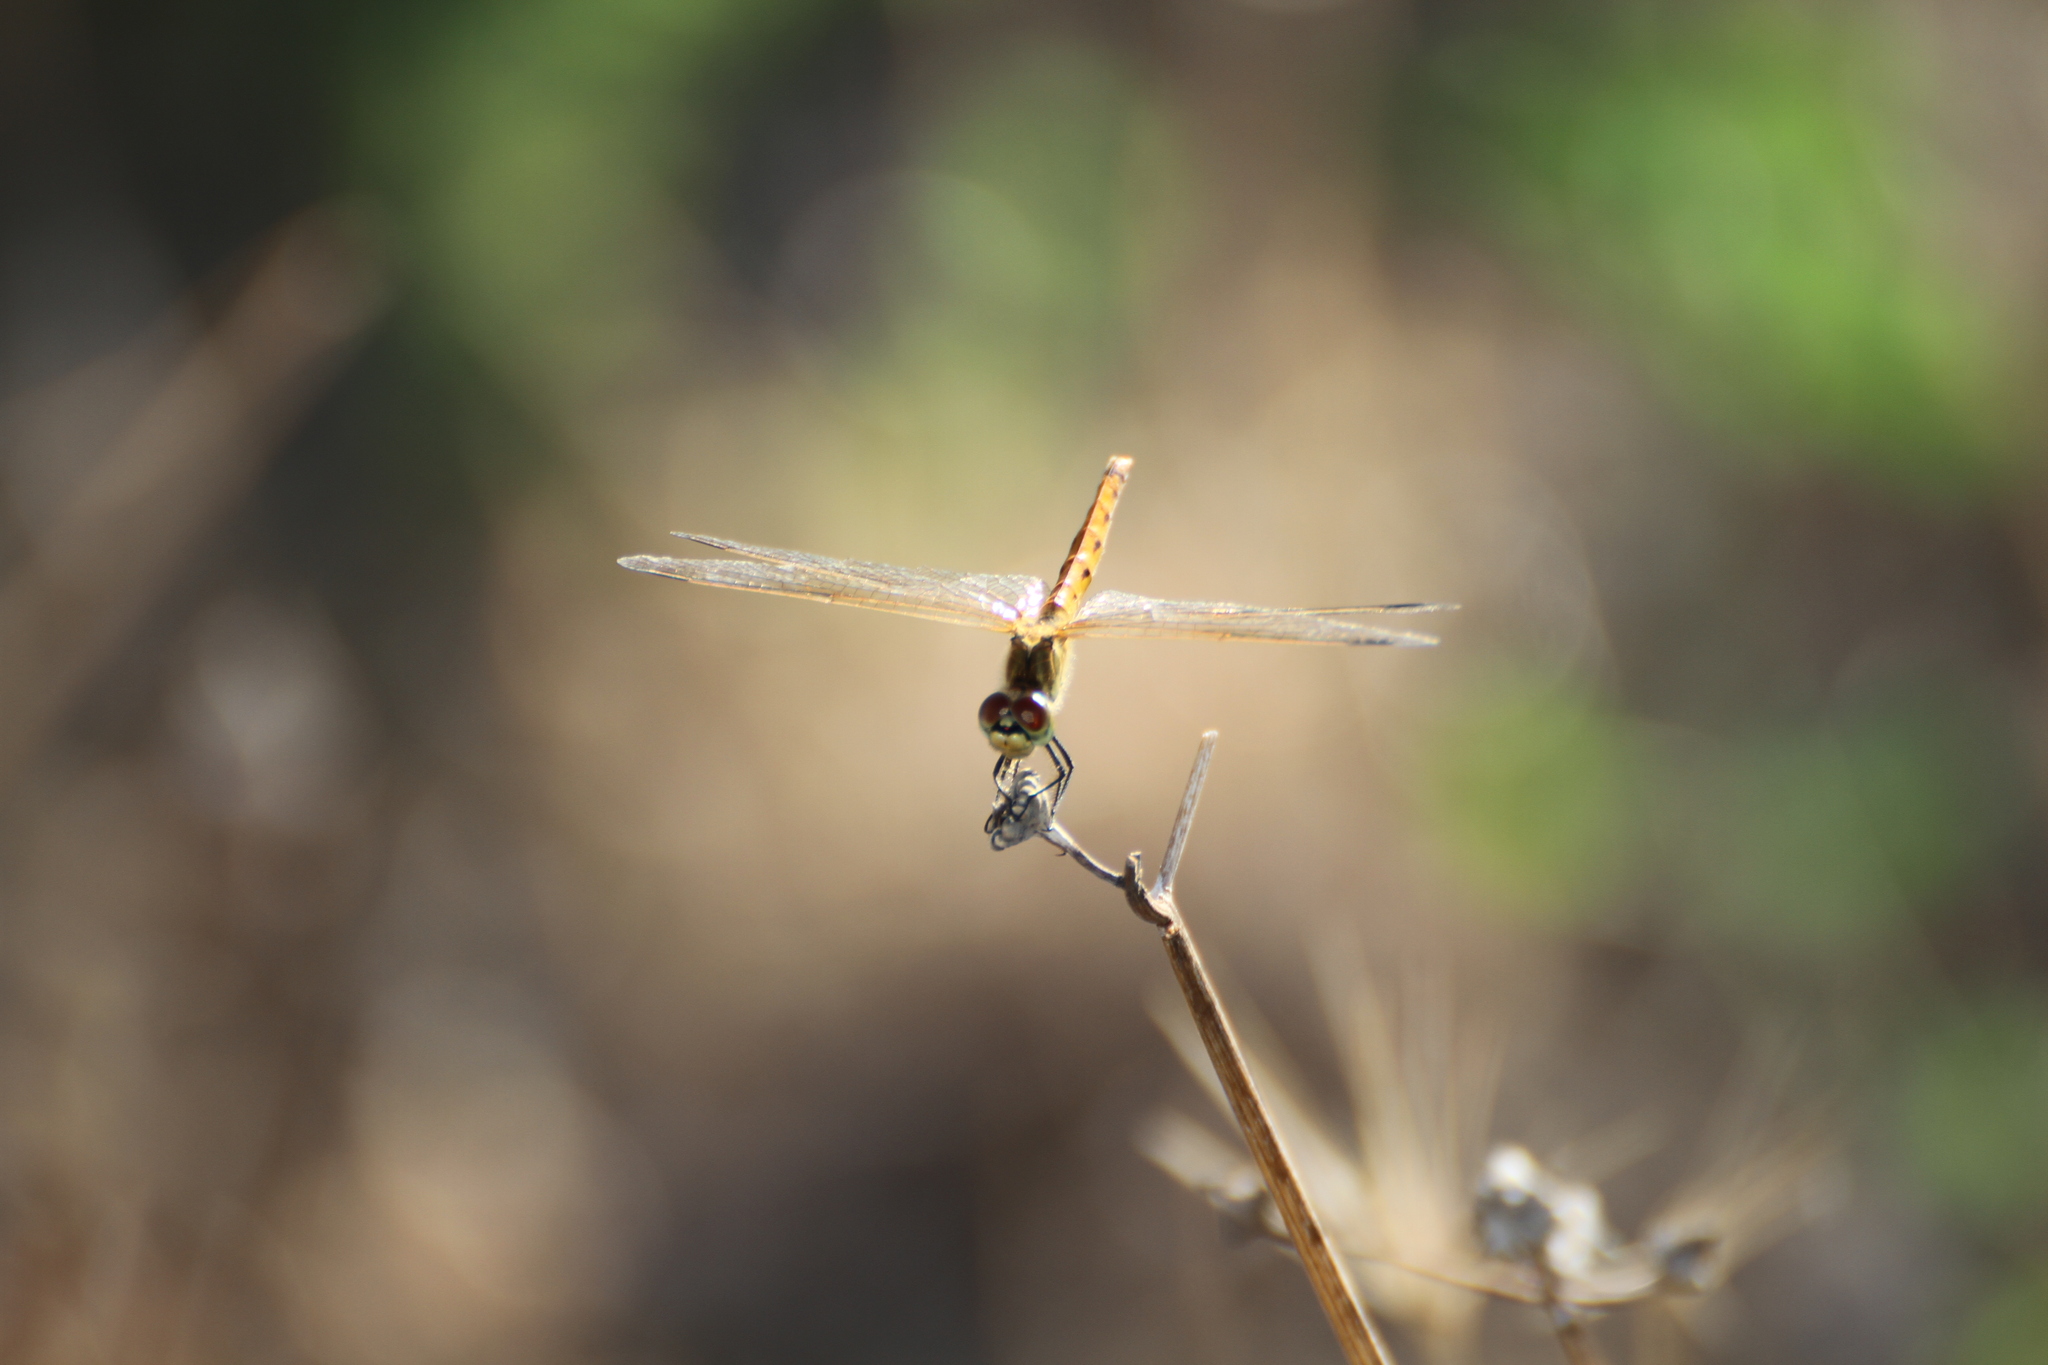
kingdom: Animalia
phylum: Arthropoda
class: Insecta
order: Odonata
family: Libellulidae
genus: Sympetrum
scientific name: Sympetrum depressiusculum
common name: Spotted darter
